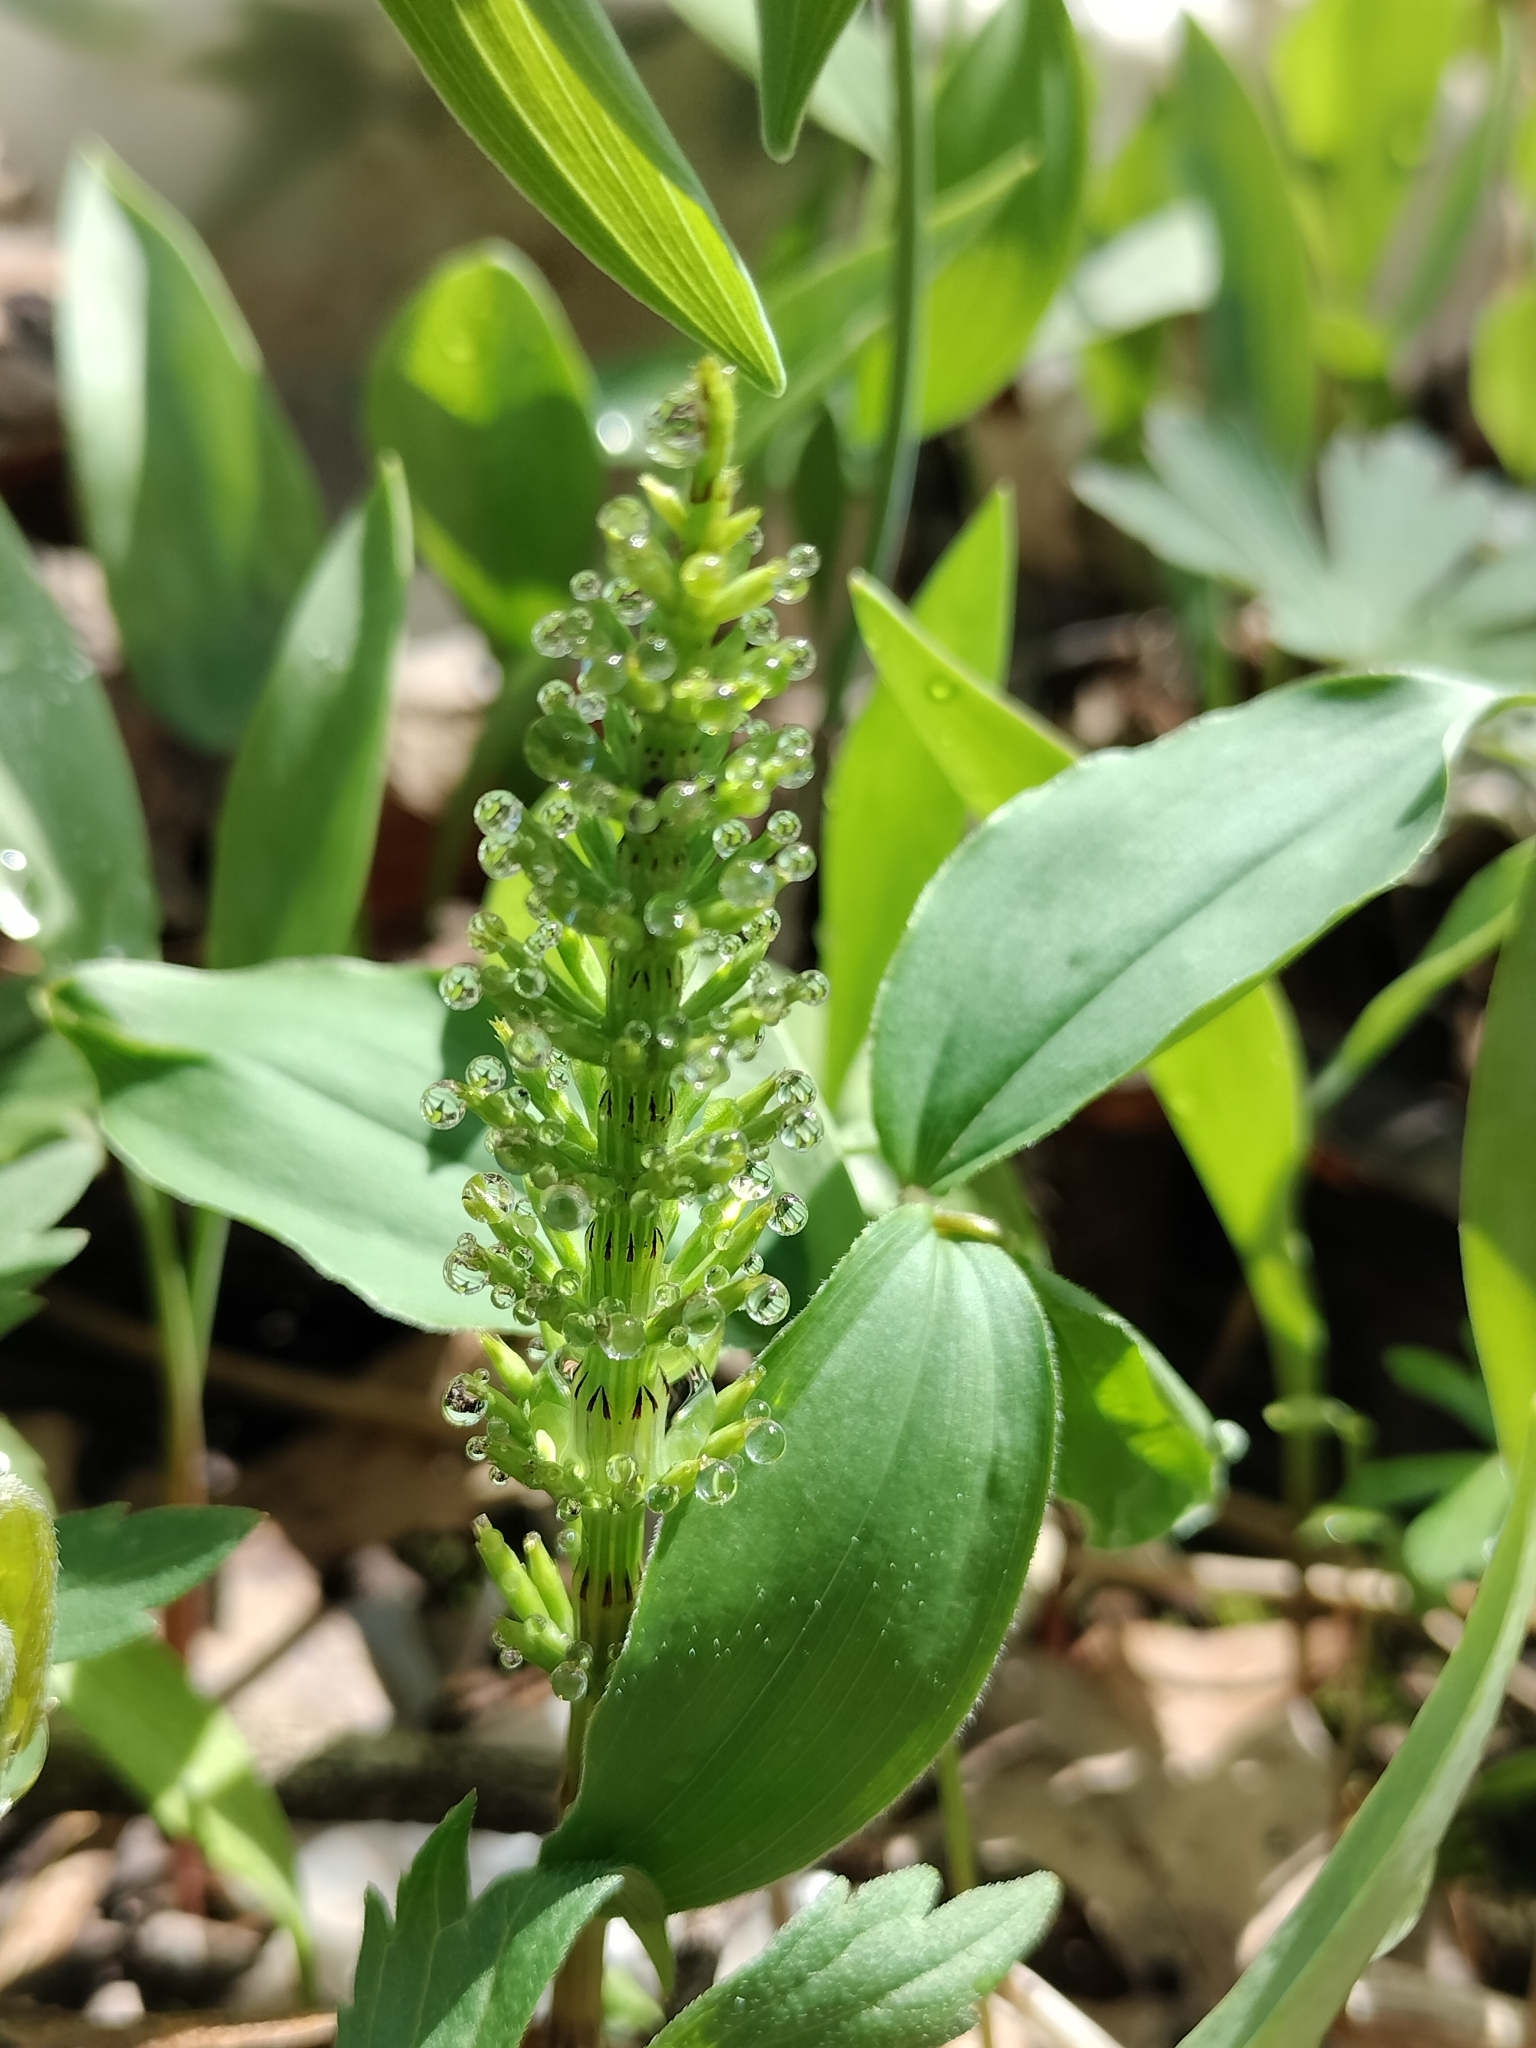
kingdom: Plantae
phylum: Tracheophyta
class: Polypodiopsida
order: Equisetales
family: Equisetaceae
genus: Equisetum
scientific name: Equisetum arvense
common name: Field horsetail
